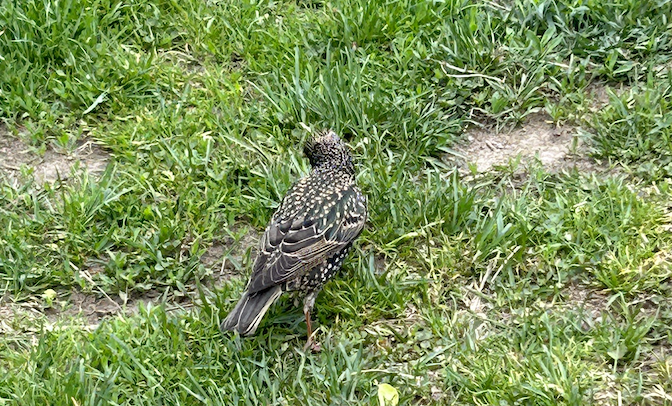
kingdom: Animalia
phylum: Chordata
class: Aves
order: Passeriformes
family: Sturnidae
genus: Sturnus
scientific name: Sturnus vulgaris
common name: Common starling
